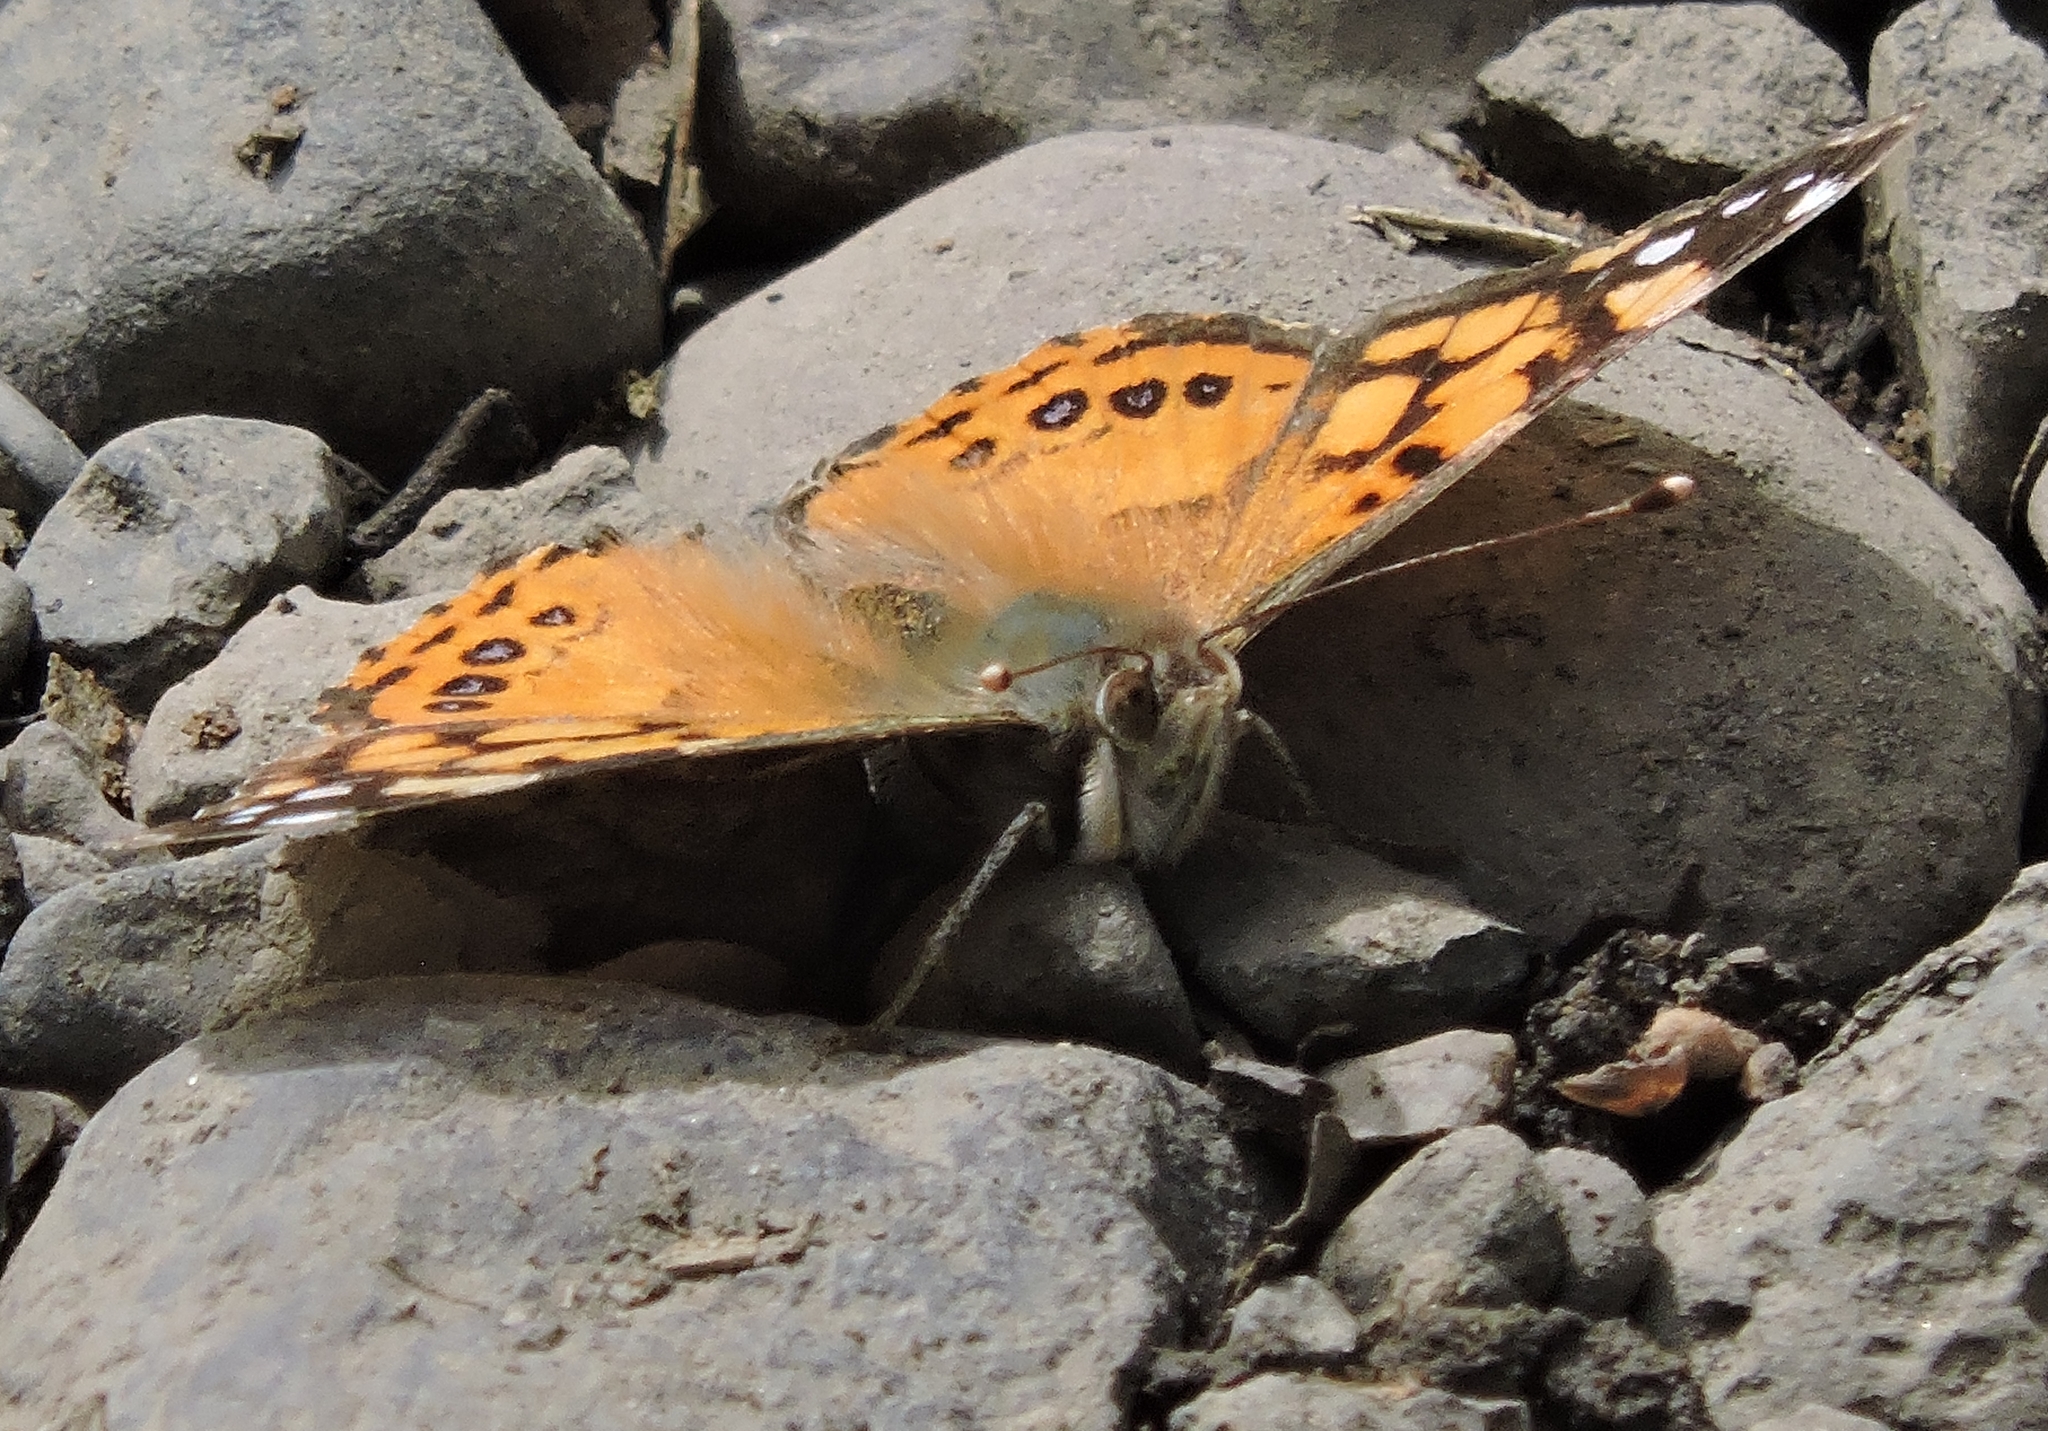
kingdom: Animalia
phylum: Arthropoda
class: Insecta
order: Lepidoptera
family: Nymphalidae
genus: Vanessa
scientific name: Vanessa annabella
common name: West coast lady
